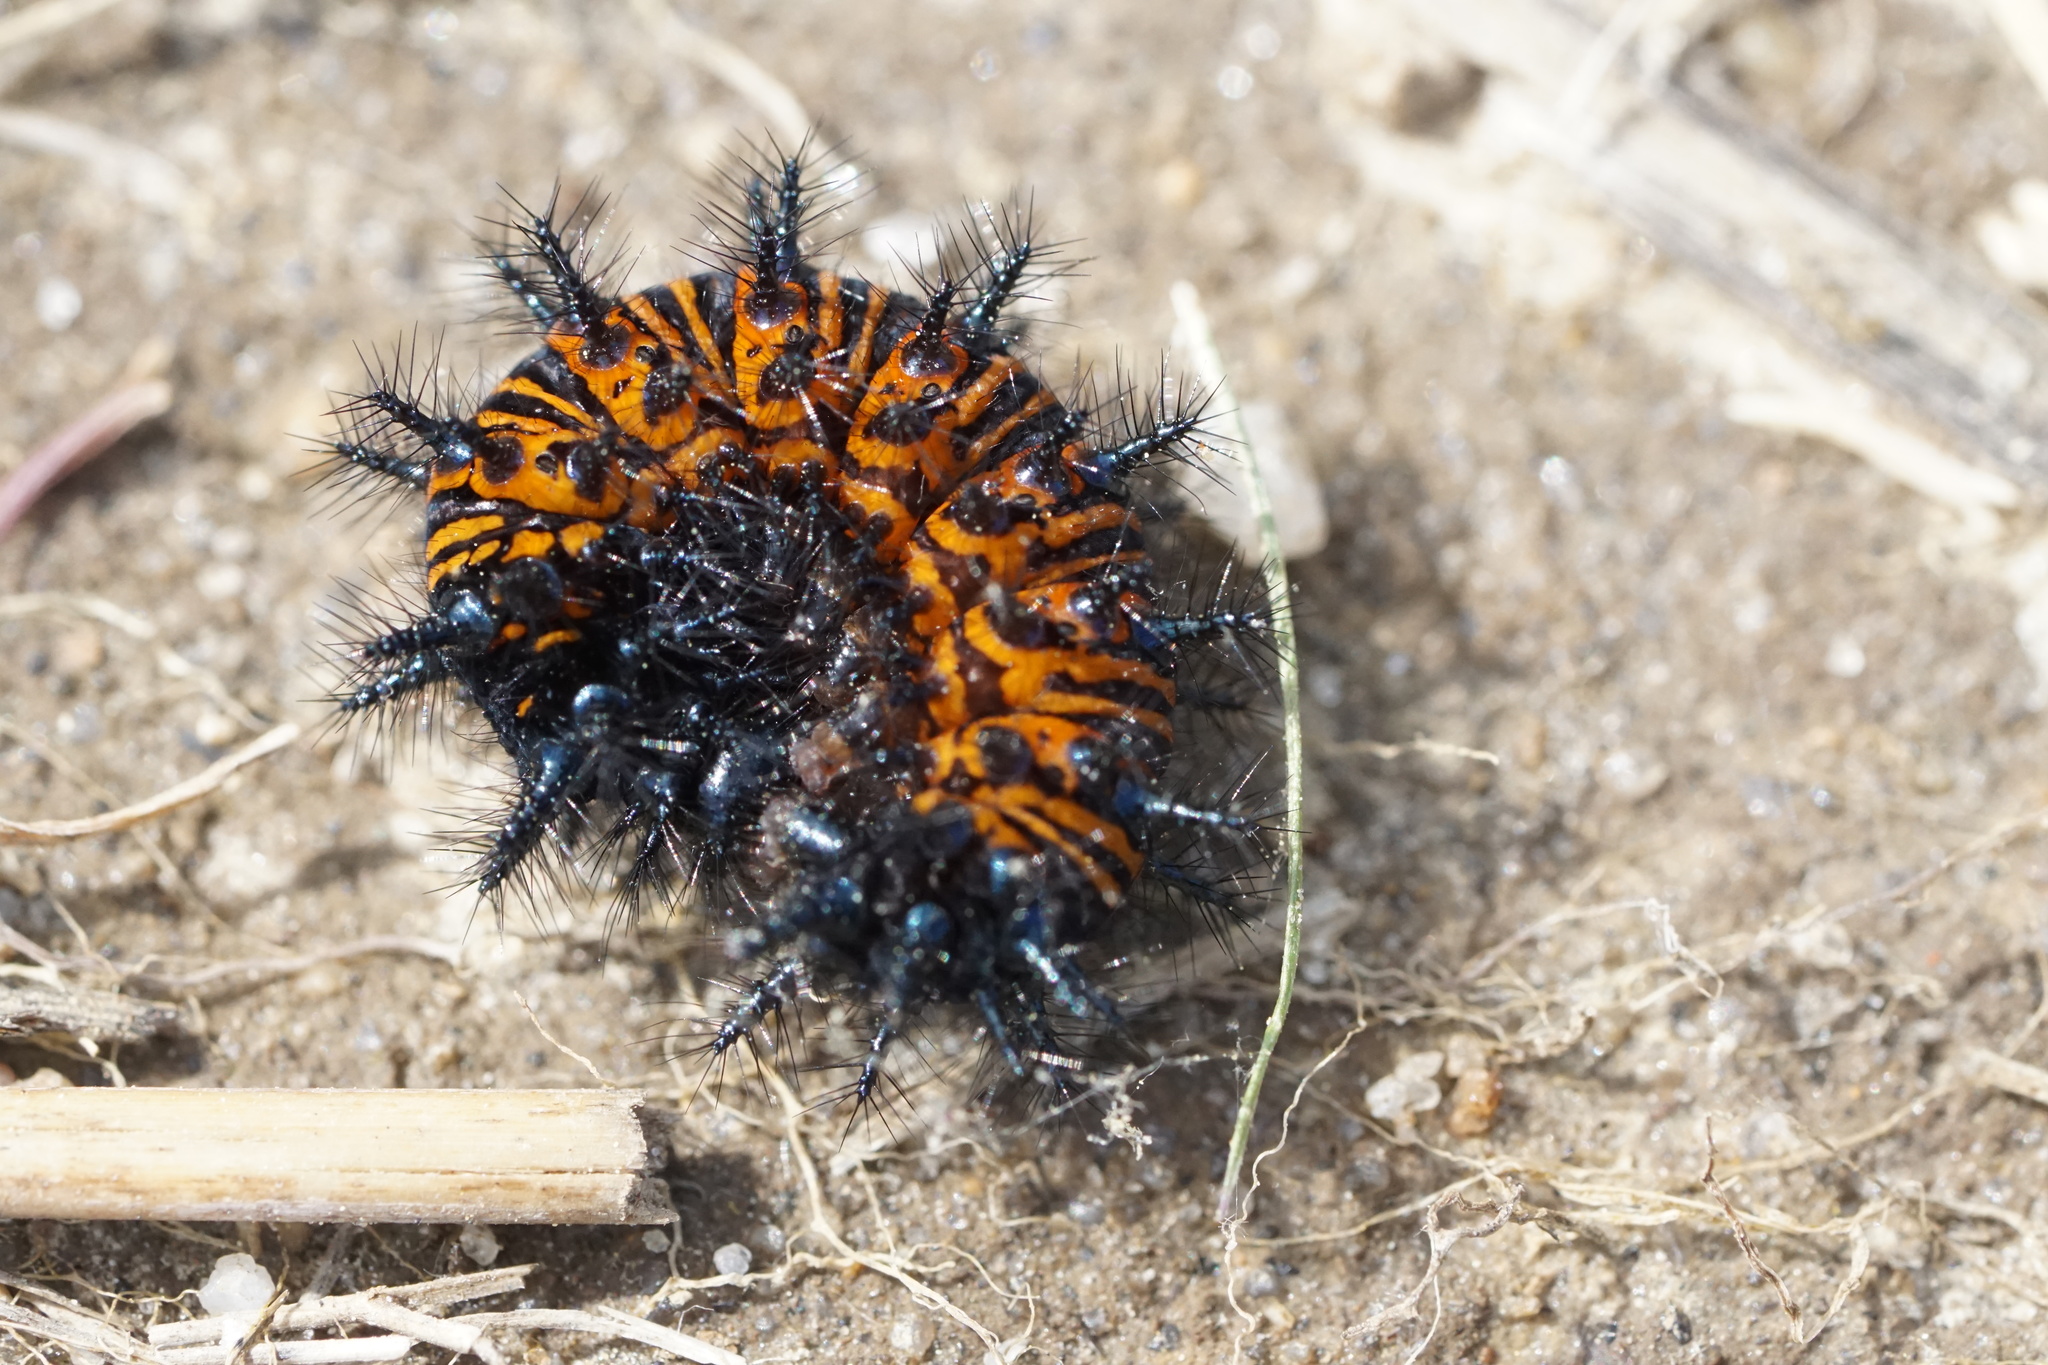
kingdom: Animalia
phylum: Arthropoda
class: Insecta
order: Lepidoptera
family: Nymphalidae
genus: Euphydryas
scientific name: Euphydryas phaeton
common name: Baltimore checkerspot
